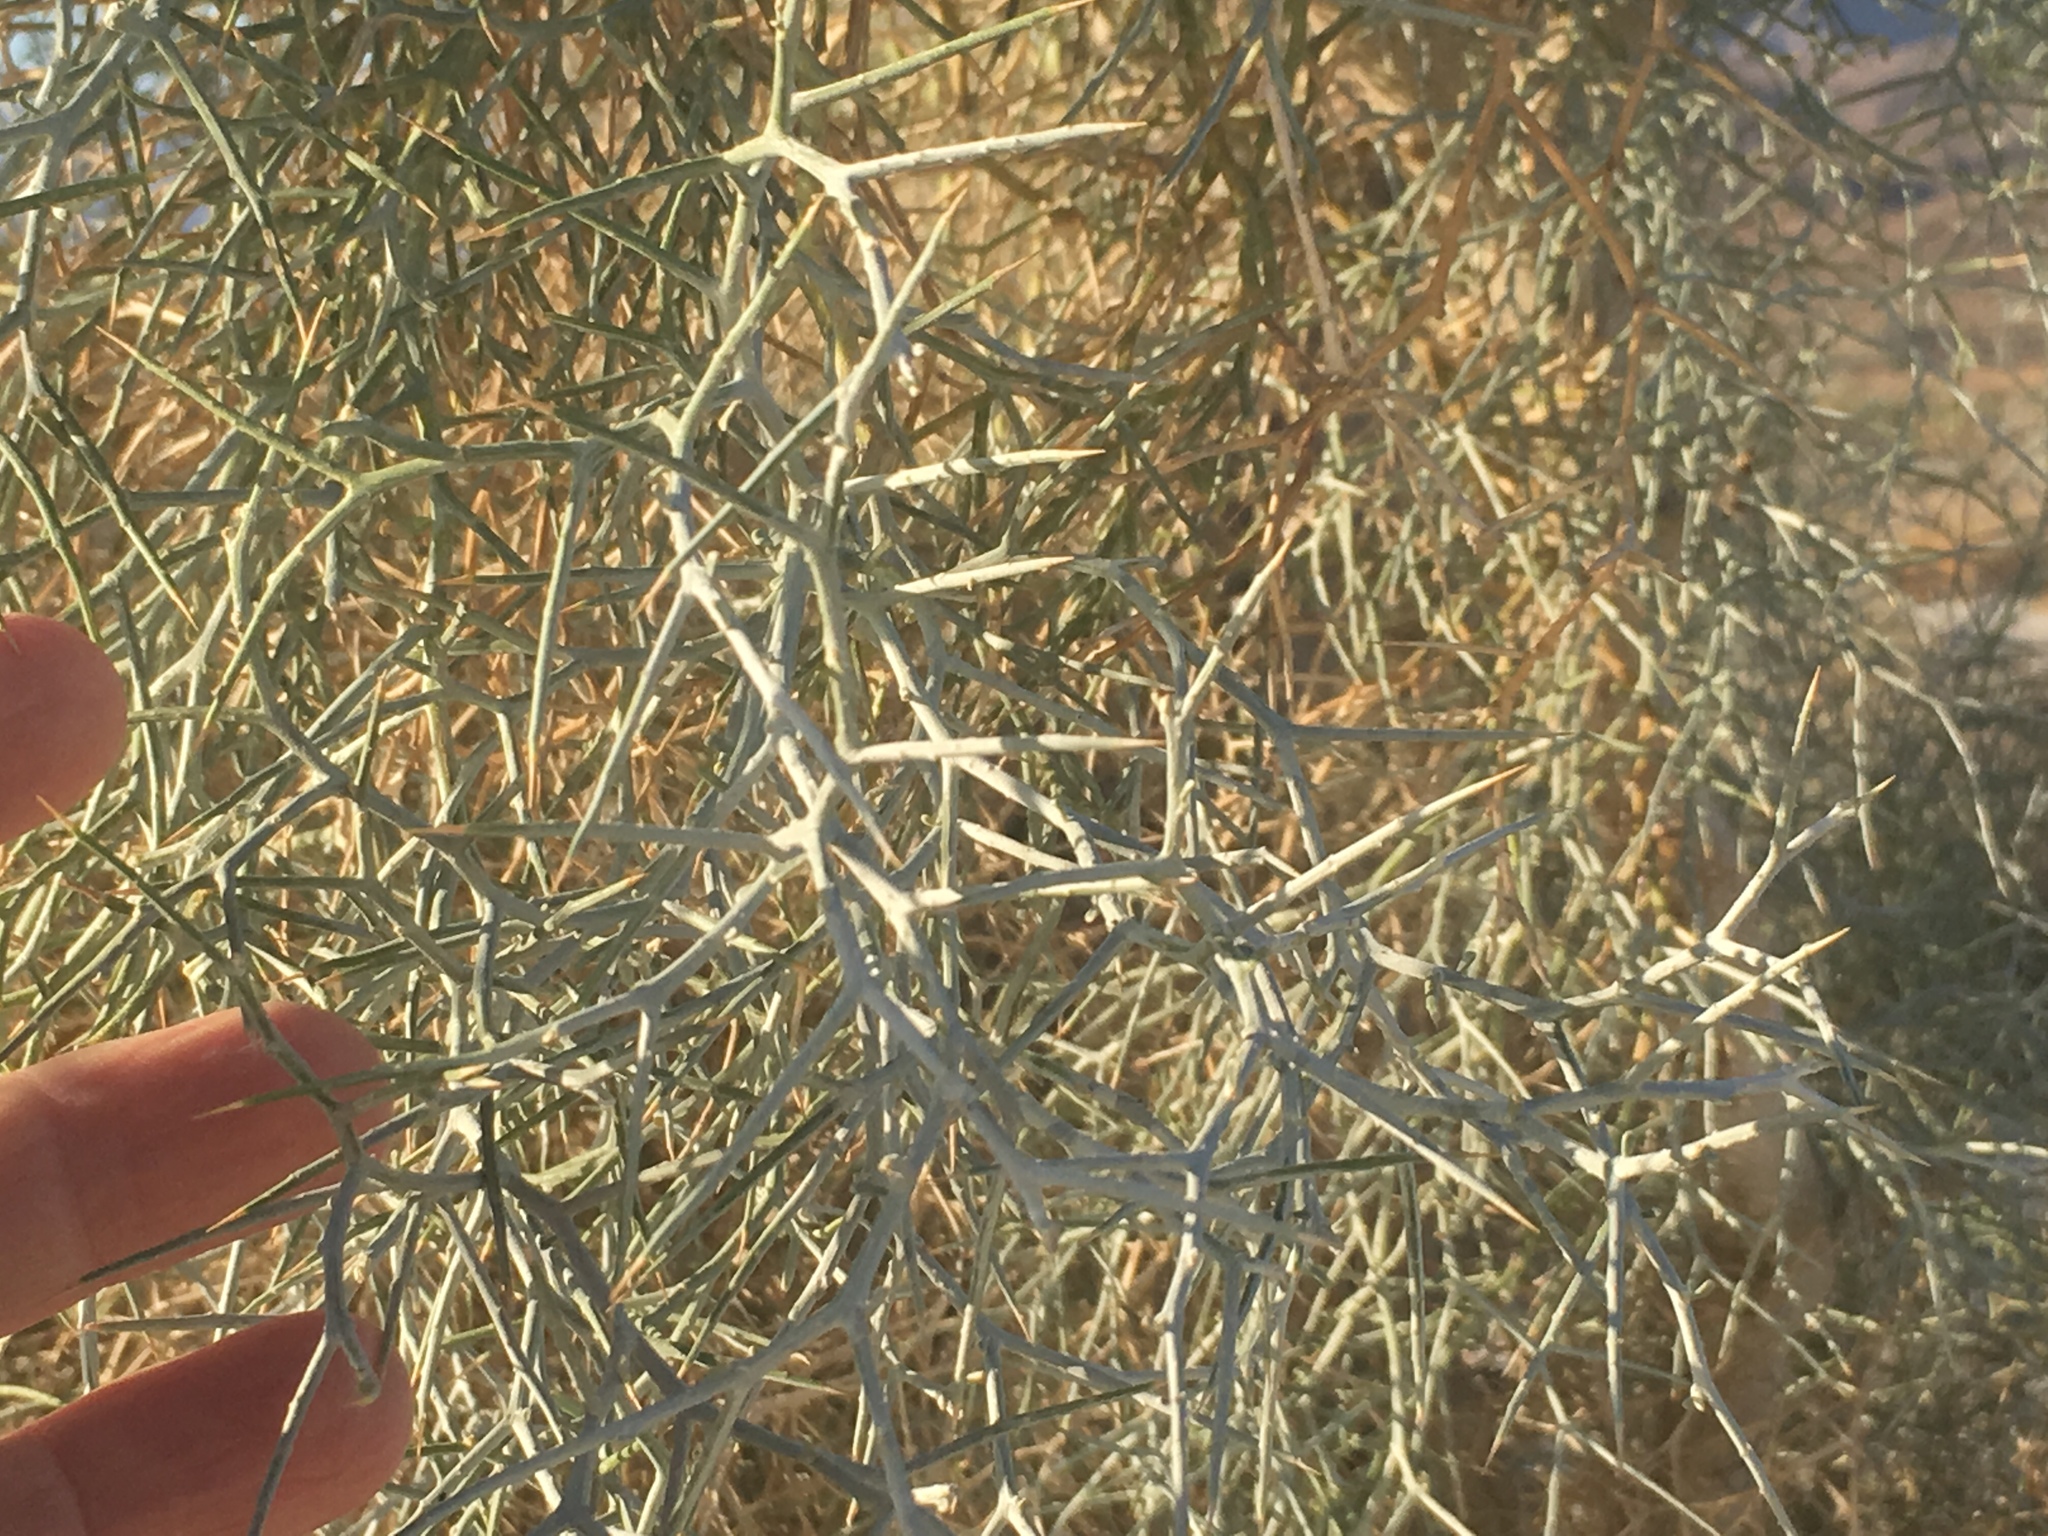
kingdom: Plantae
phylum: Tracheophyta
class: Magnoliopsida
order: Fabales
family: Fabaceae
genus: Psorothamnus
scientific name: Psorothamnus spinosus
